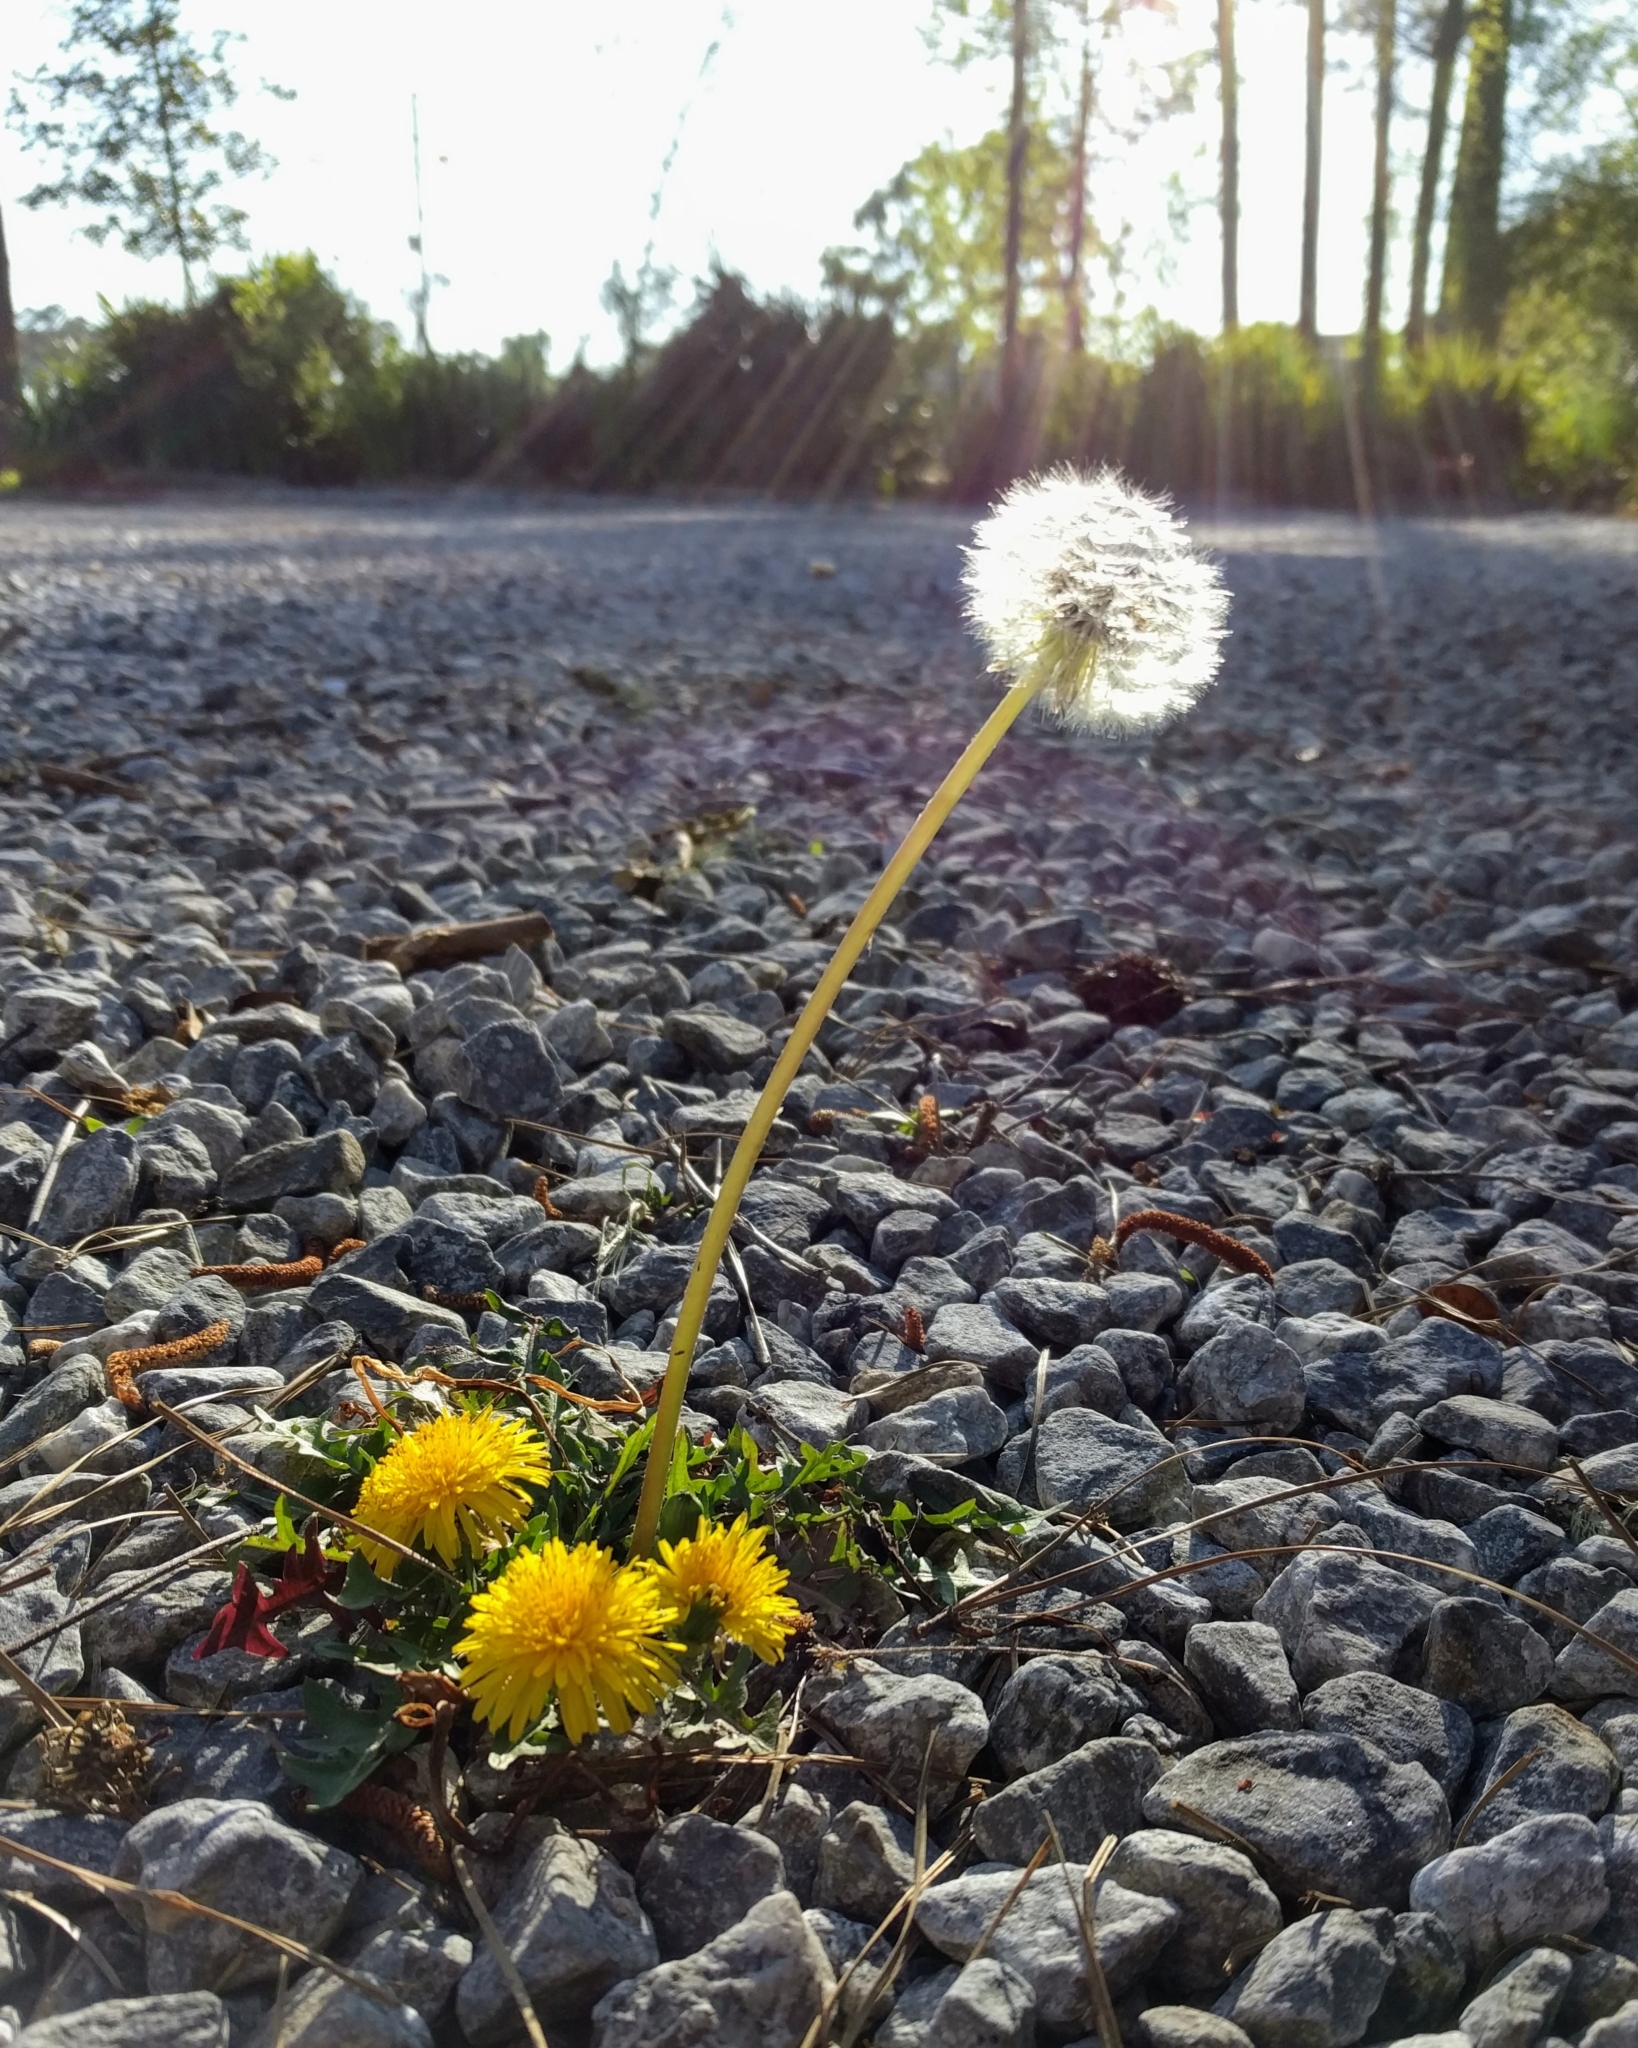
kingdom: Plantae
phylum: Tracheophyta
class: Magnoliopsida
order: Asterales
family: Asteraceae
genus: Taraxacum
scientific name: Taraxacum officinale
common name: Common dandelion
